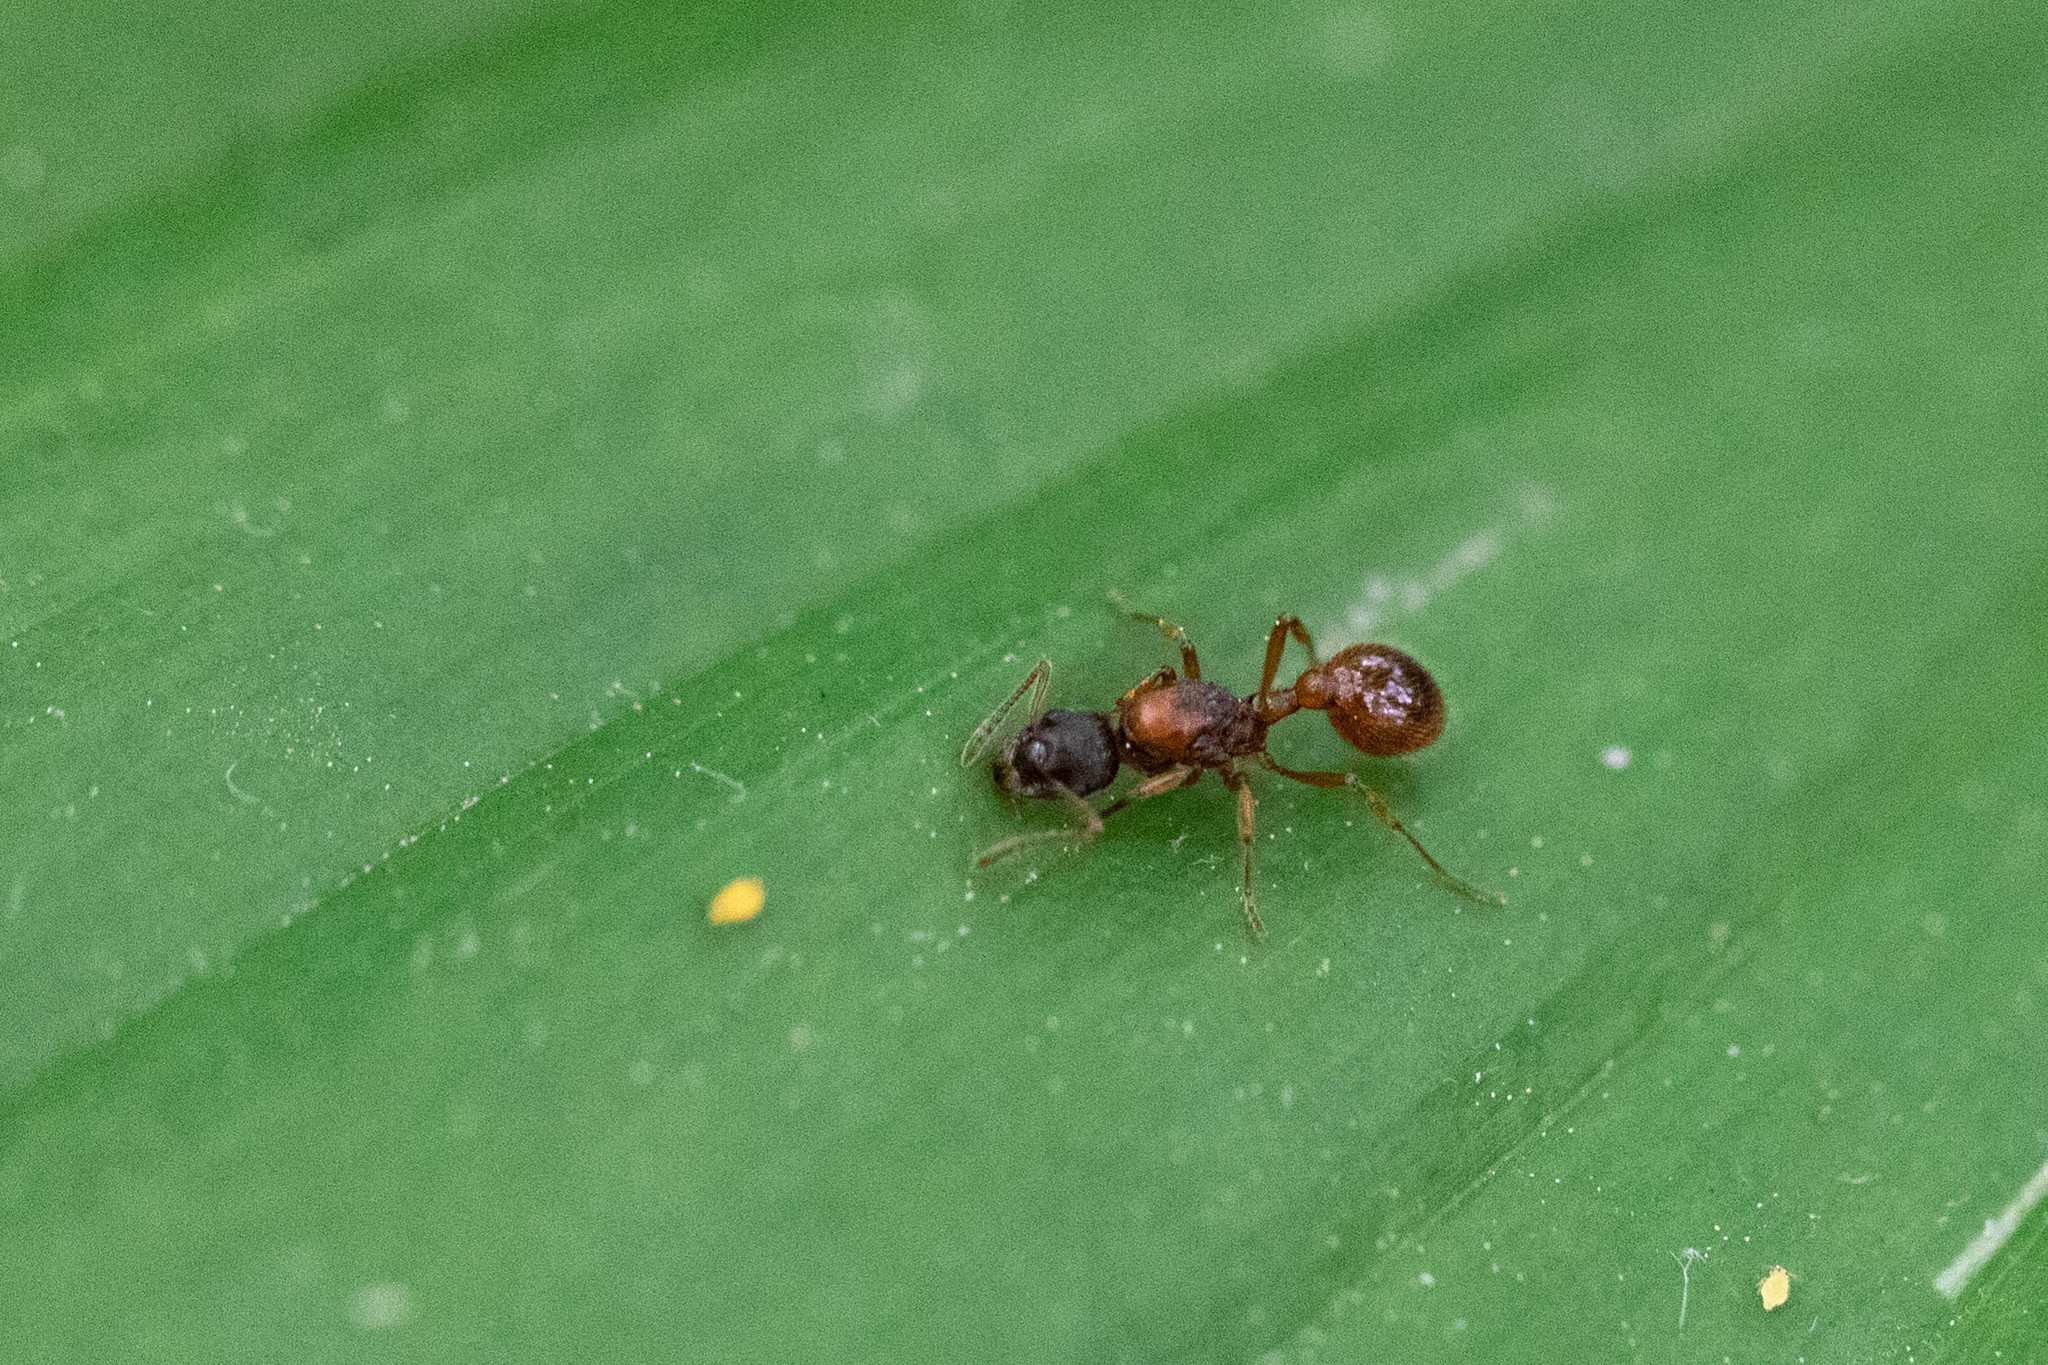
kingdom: Animalia
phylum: Arthropoda
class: Insecta
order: Hymenoptera
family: Formicidae
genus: Myrmica
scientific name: Myrmica rubra
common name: European fire ant
